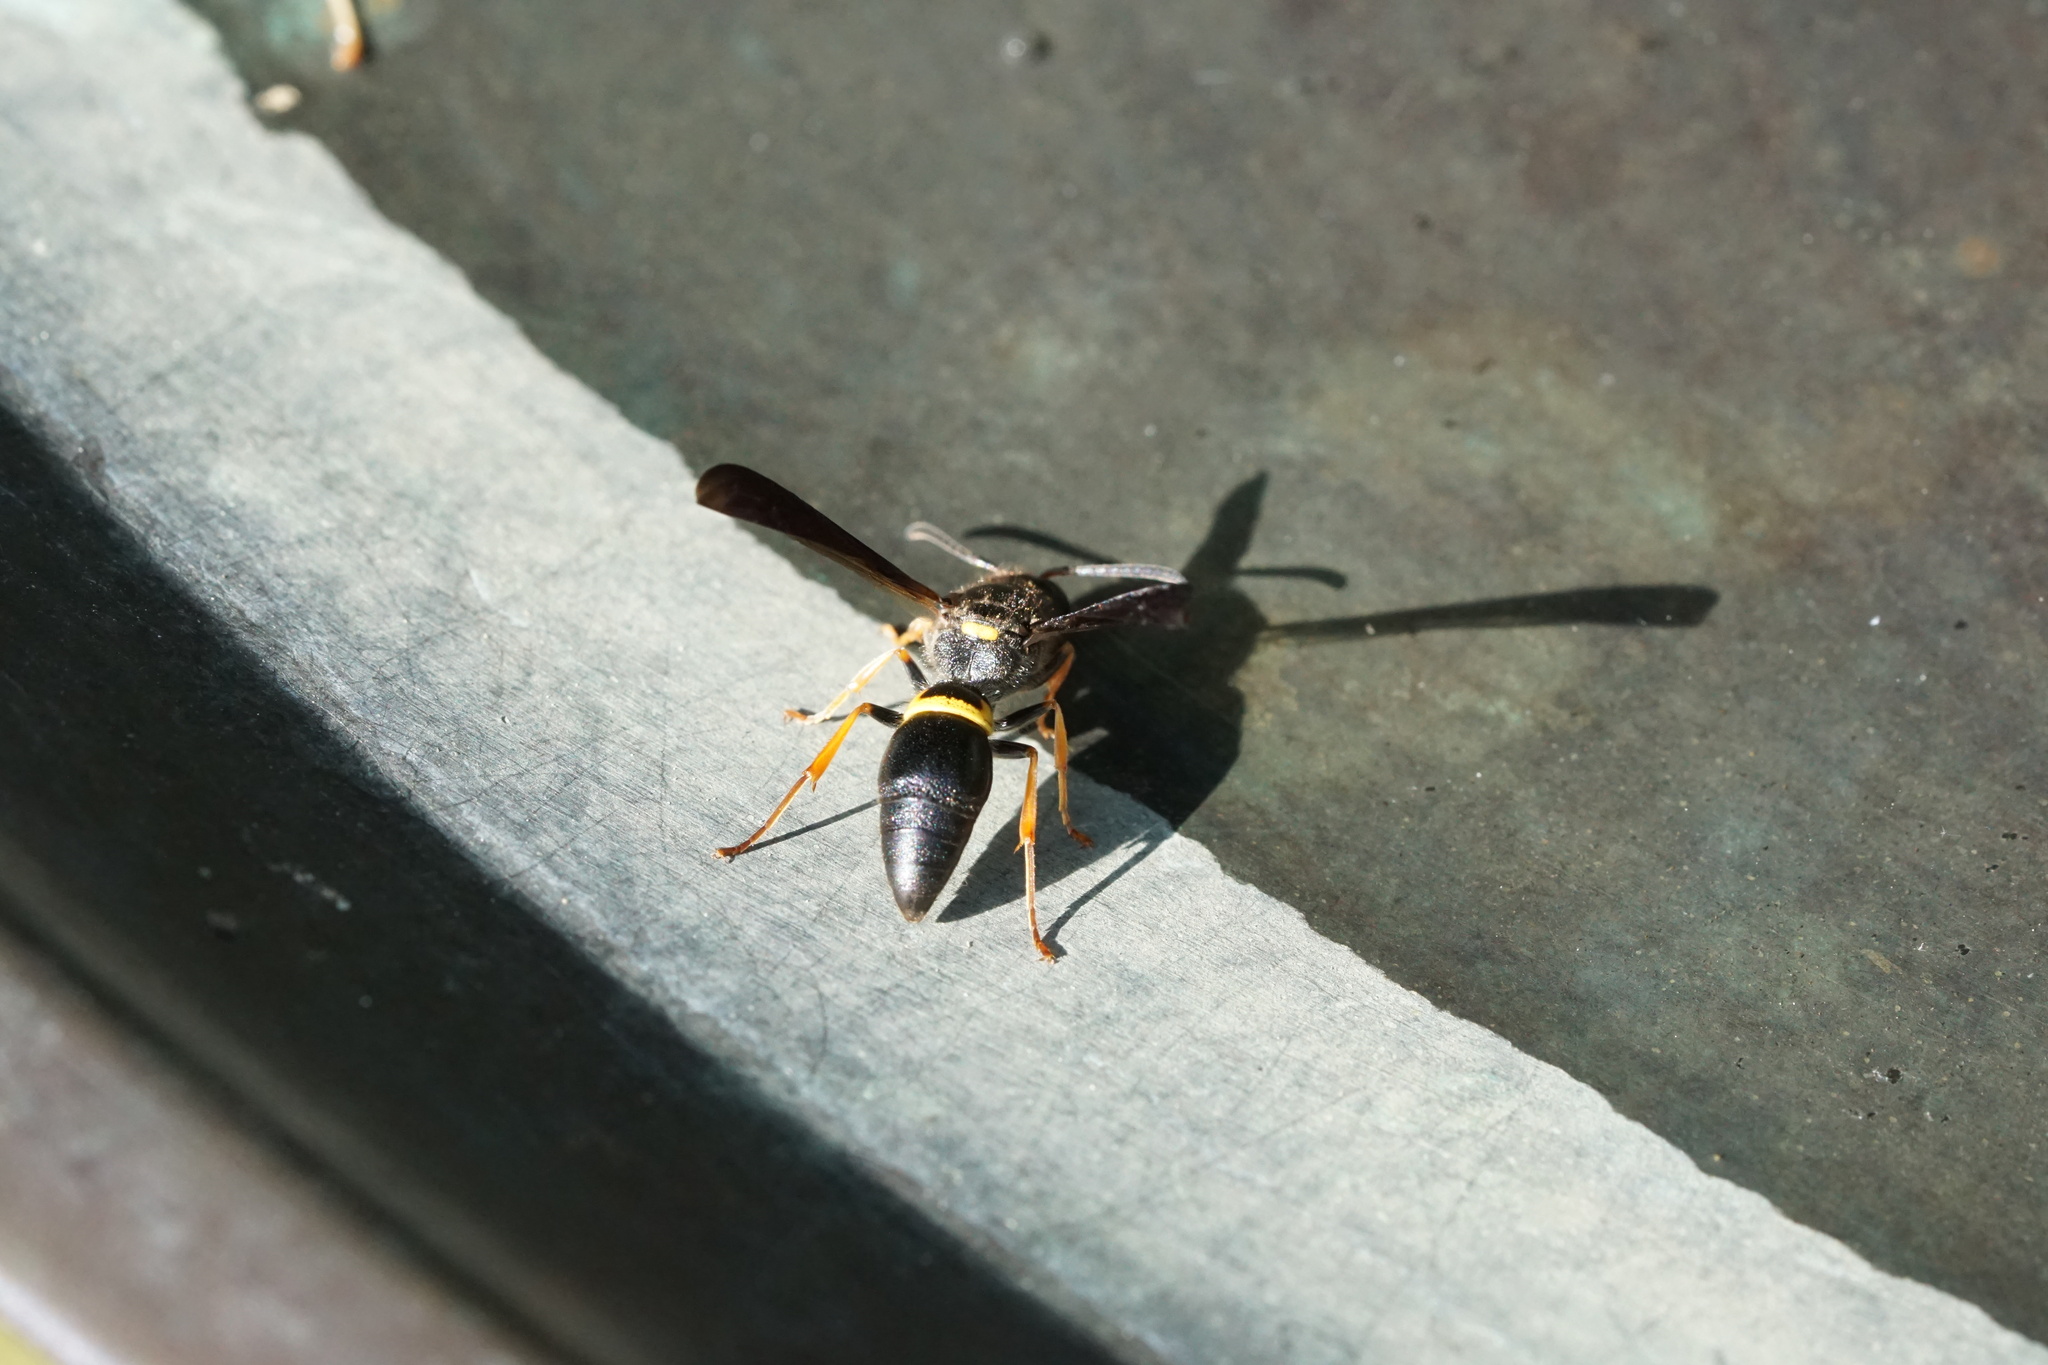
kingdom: Animalia
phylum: Arthropoda
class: Insecta
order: Hymenoptera
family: Vespidae
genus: Ancistrocerus
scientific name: Ancistrocerus unifasciatus
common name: One-banded mason wasp
